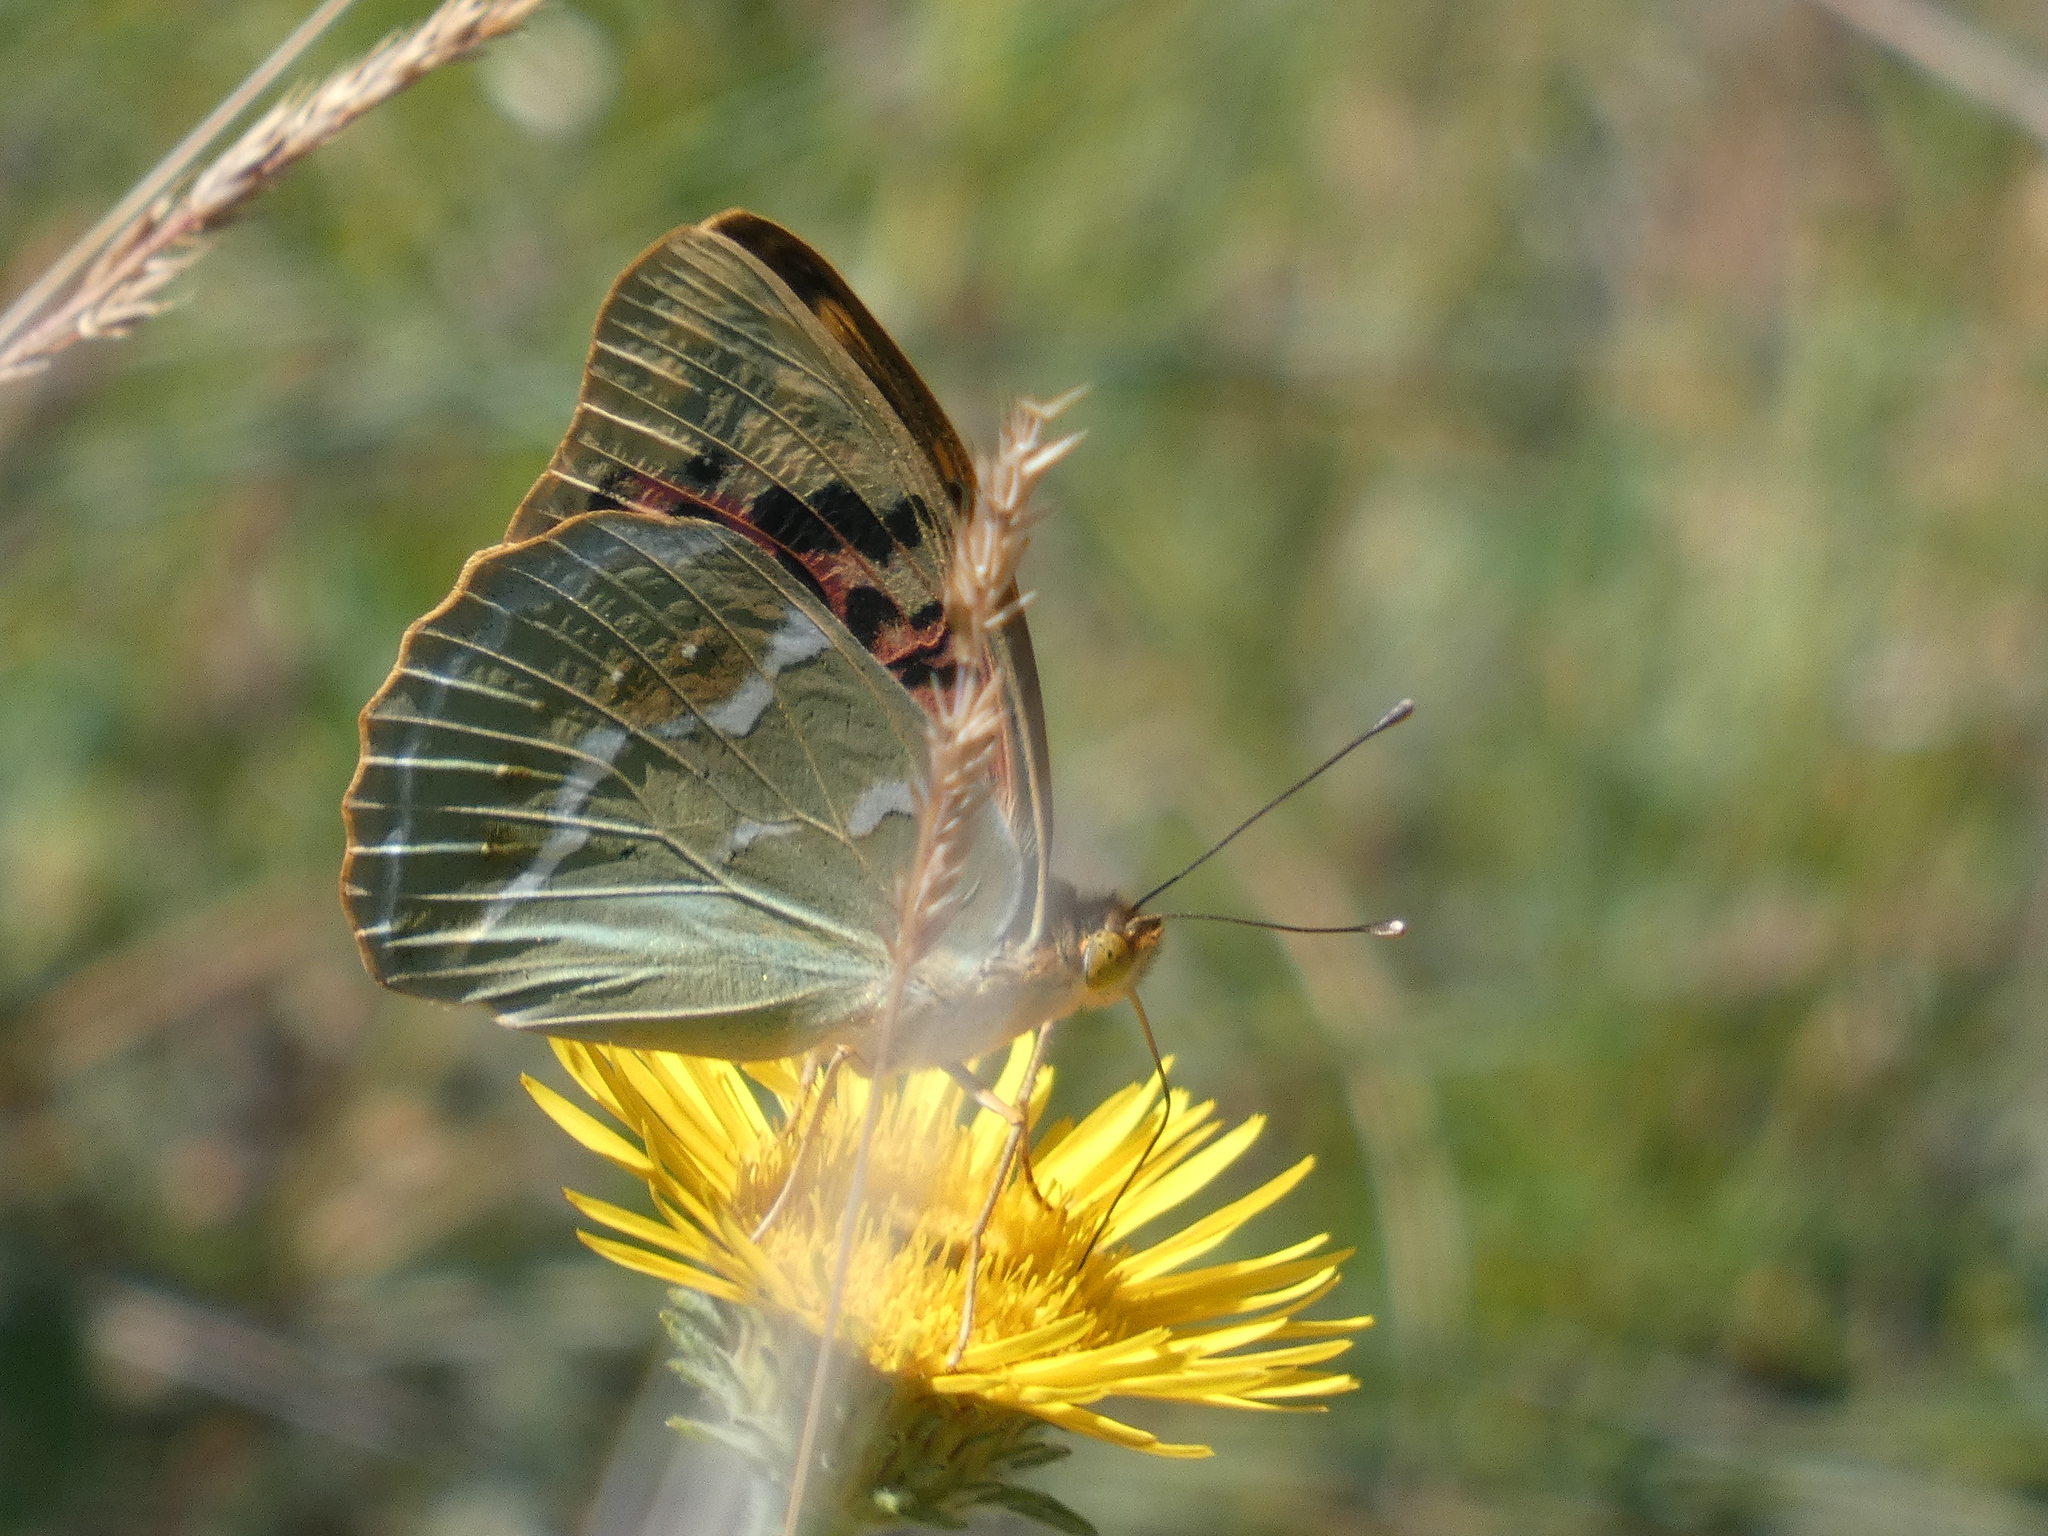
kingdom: Animalia
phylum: Arthropoda
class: Insecta
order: Lepidoptera
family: Nymphalidae
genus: Damora
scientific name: Damora pandora
